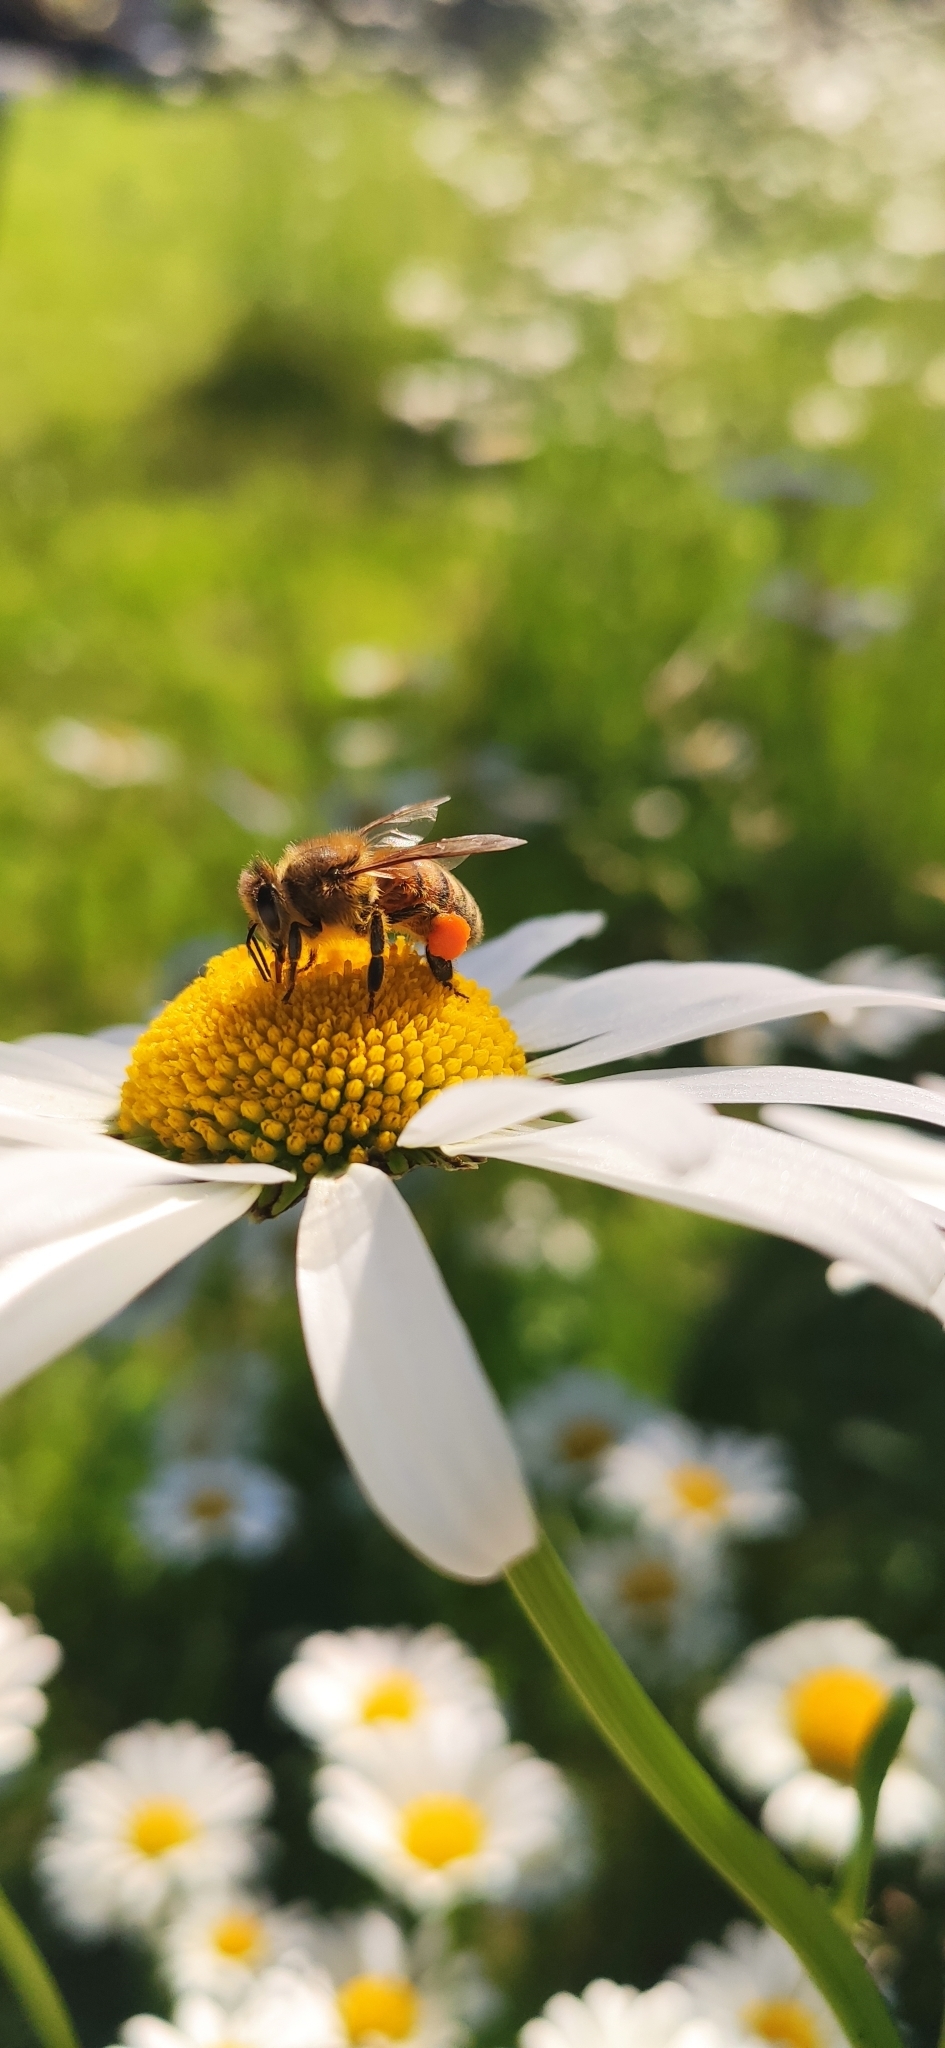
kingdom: Animalia
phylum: Arthropoda
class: Insecta
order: Hymenoptera
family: Apidae
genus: Apis
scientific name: Apis mellifera
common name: Honey bee
